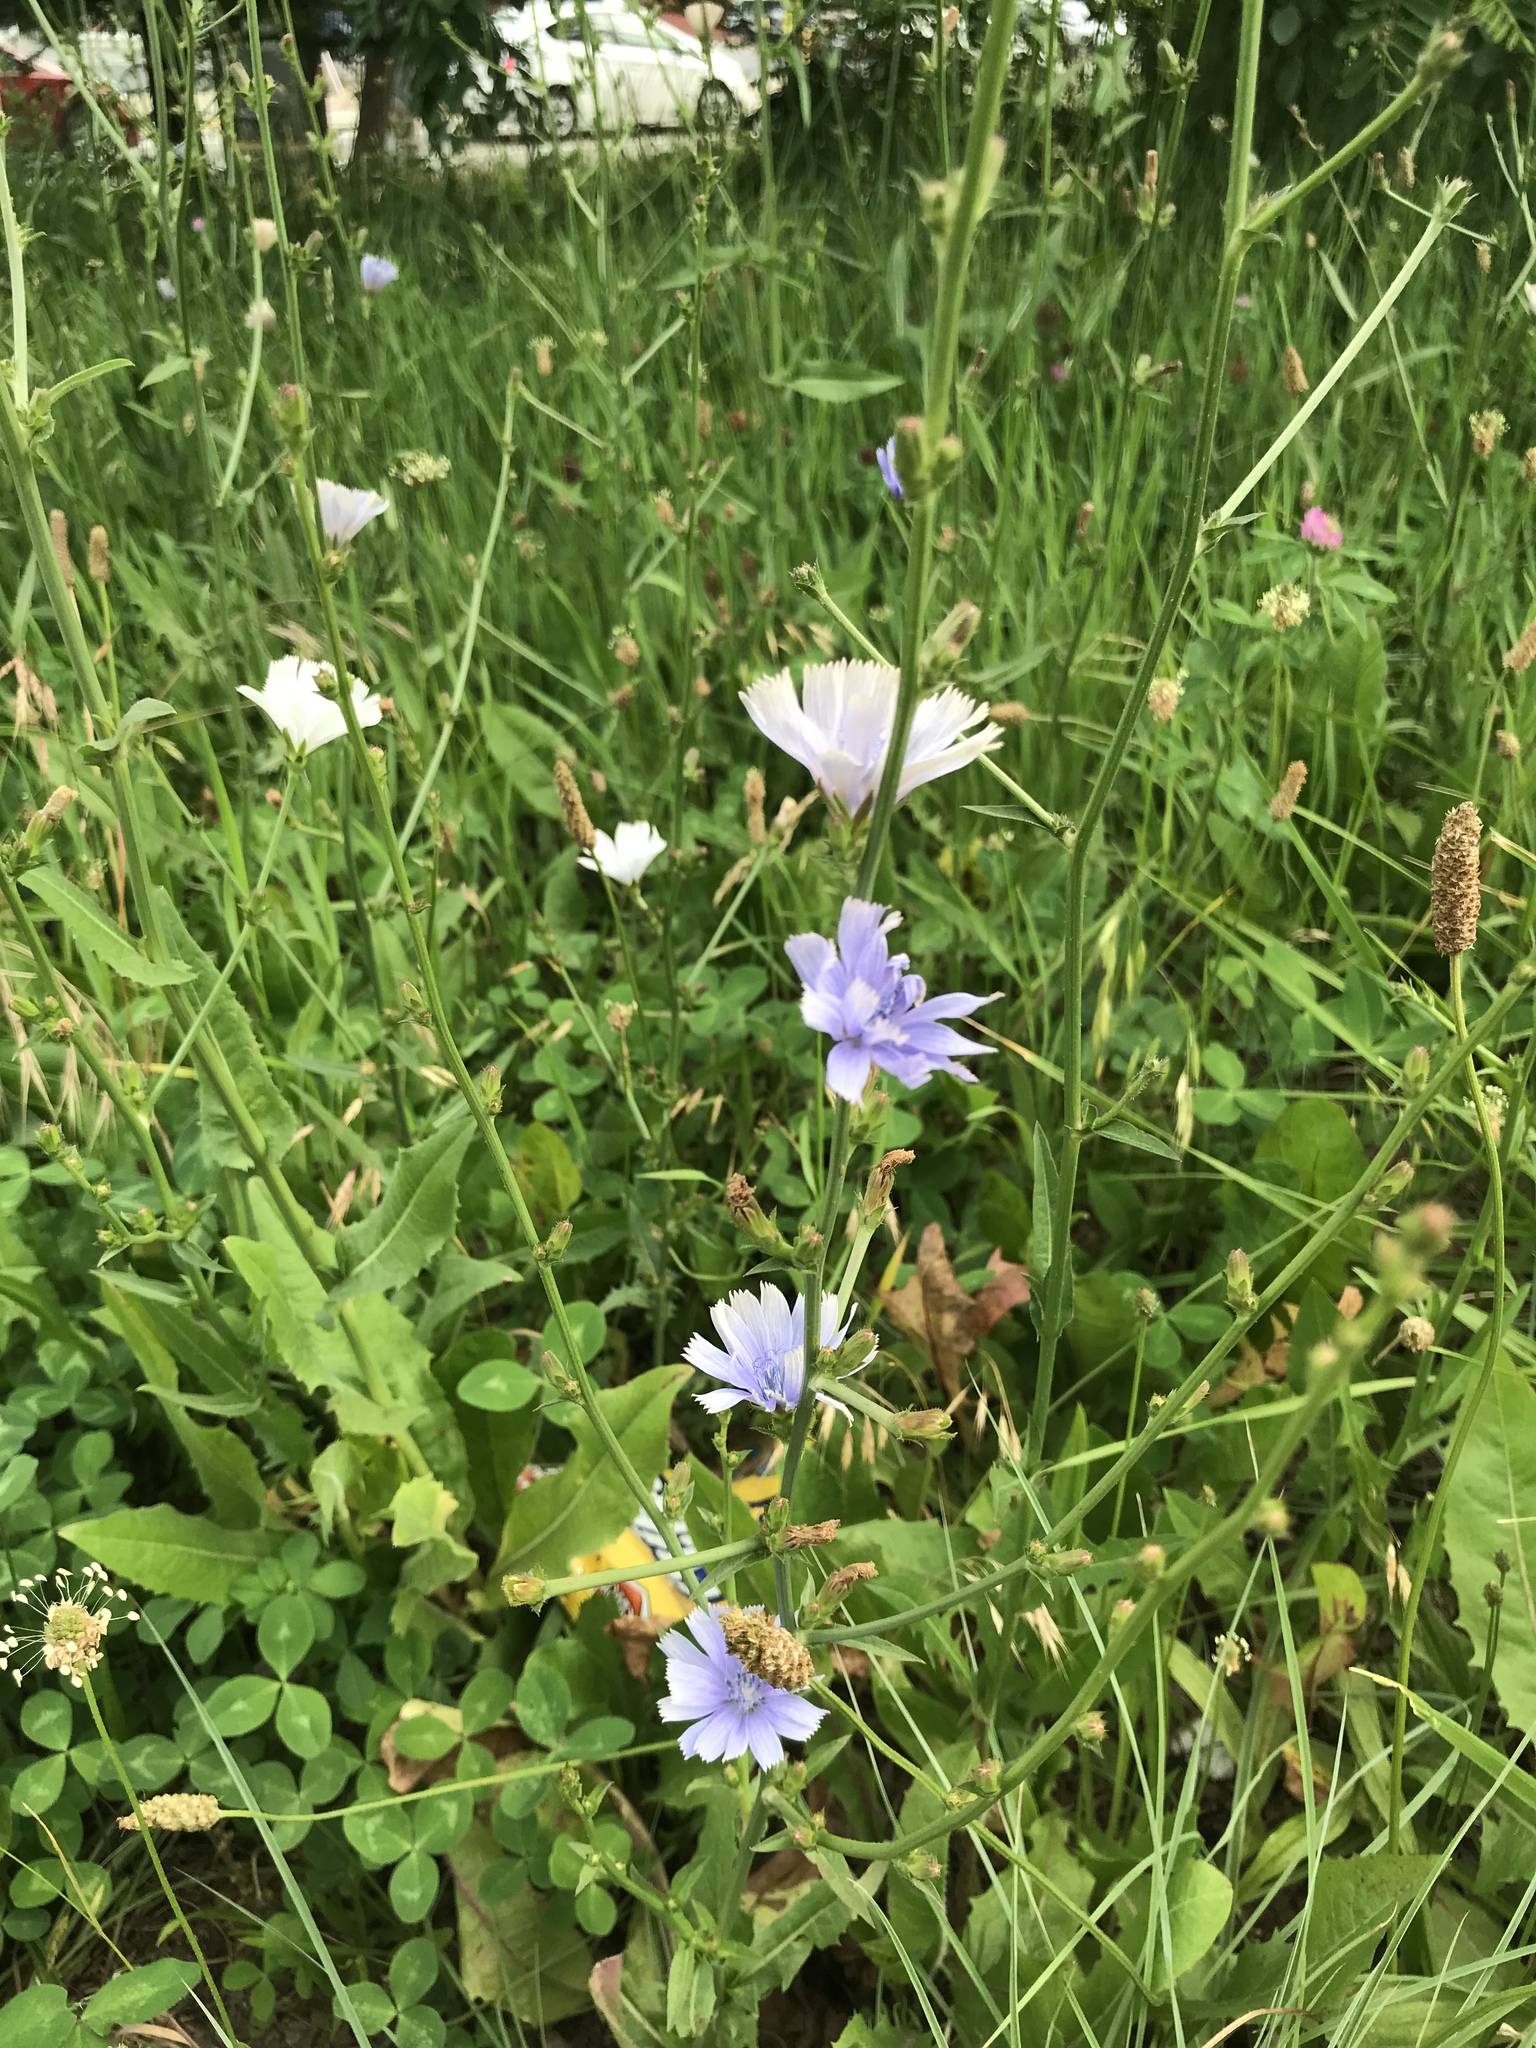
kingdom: Plantae
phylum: Tracheophyta
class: Magnoliopsida
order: Asterales
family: Asteraceae
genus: Cichorium
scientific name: Cichorium intybus
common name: Chicory
